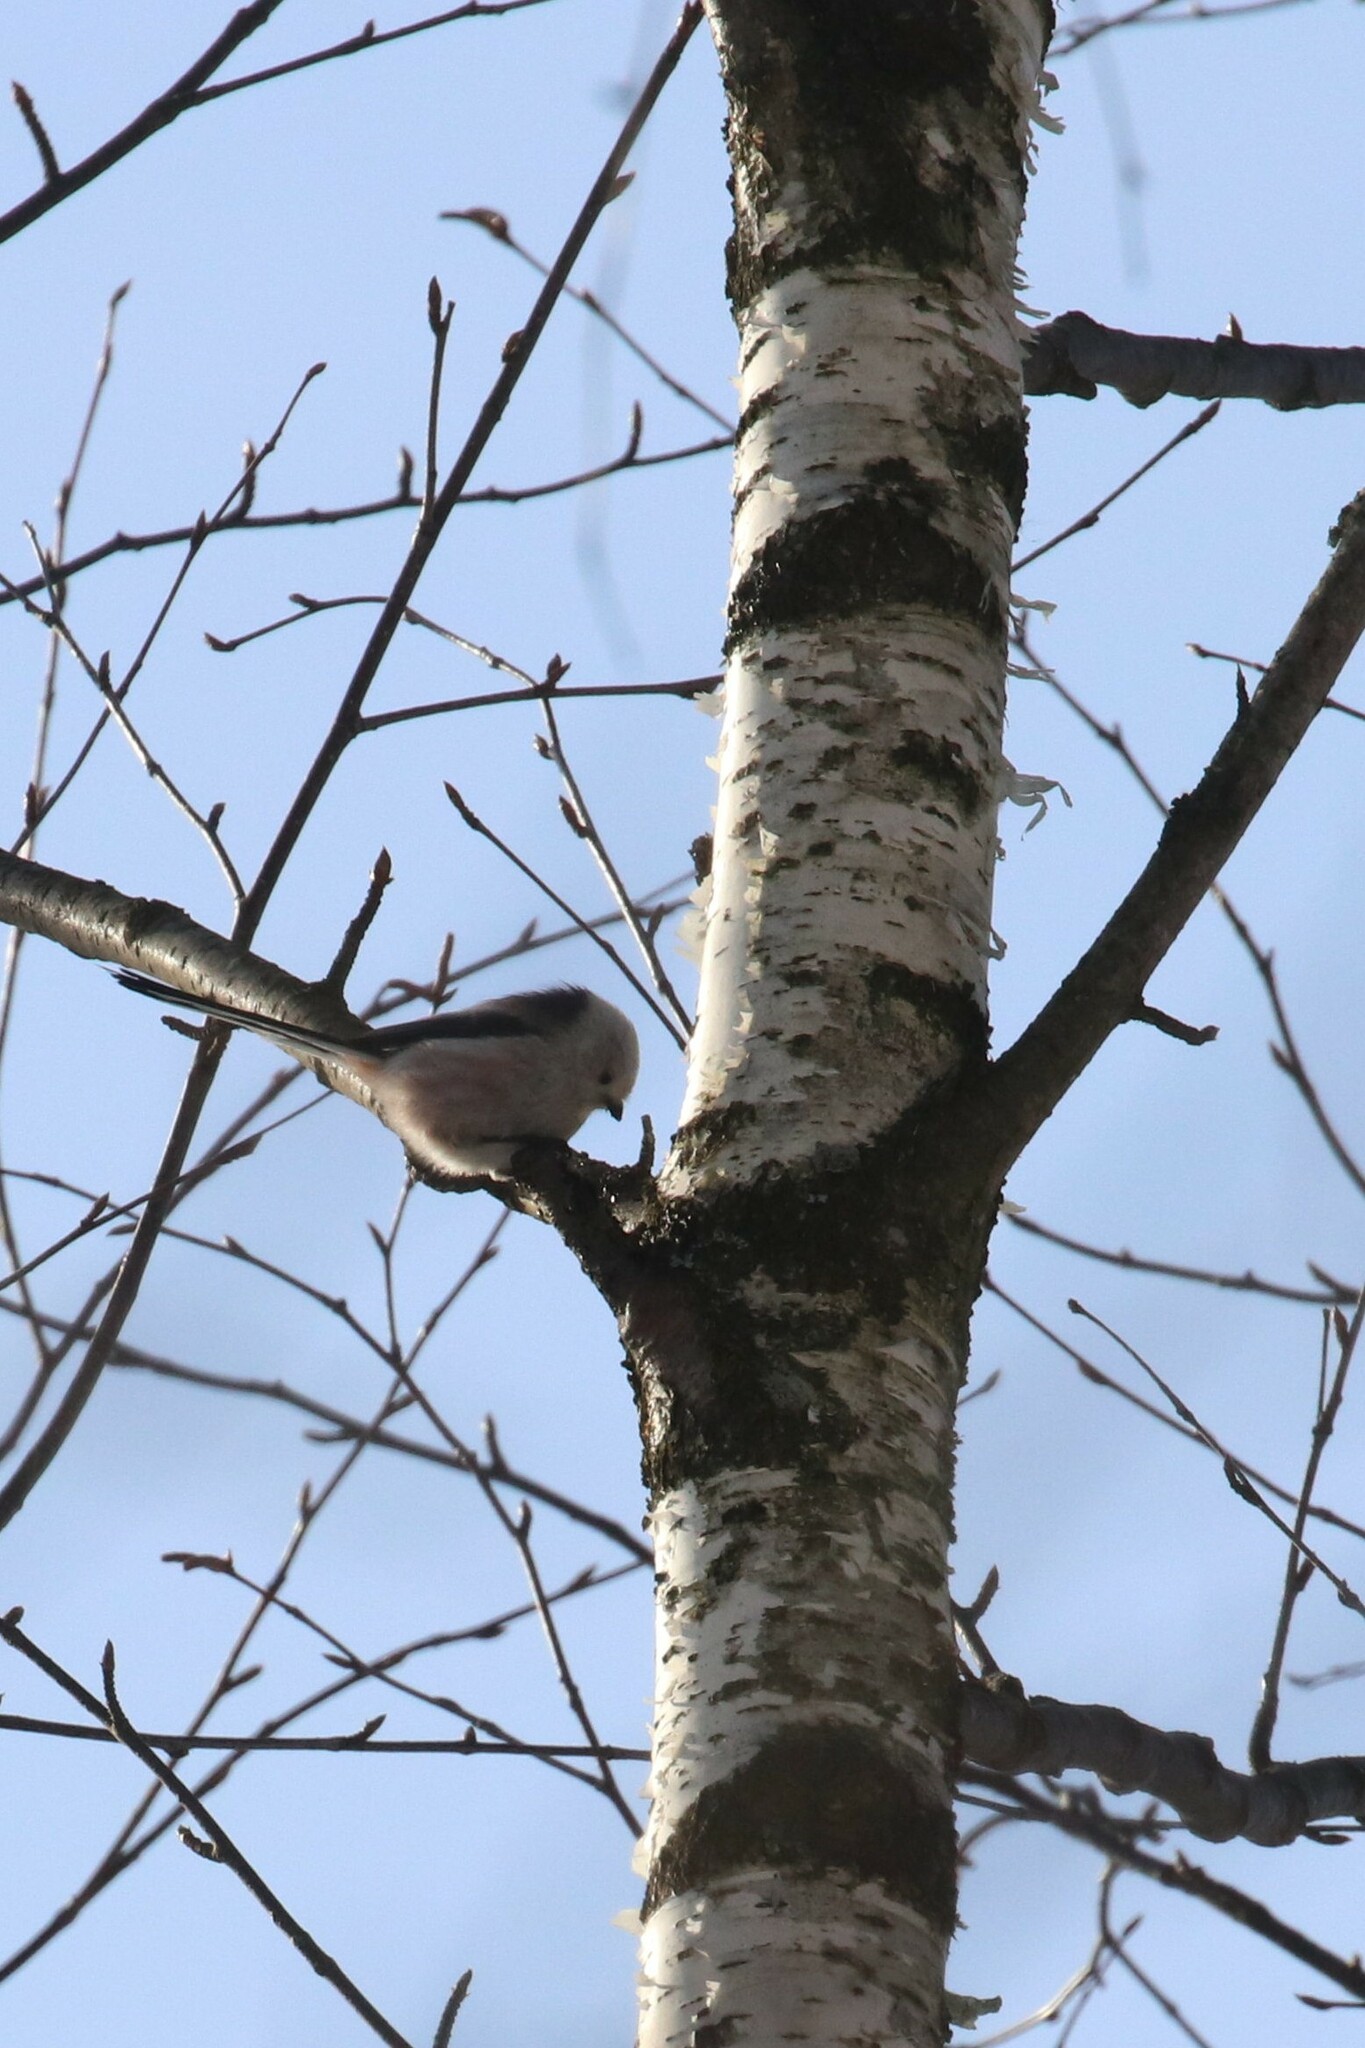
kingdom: Animalia
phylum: Chordata
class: Aves
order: Passeriformes
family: Aegithalidae
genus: Aegithalos
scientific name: Aegithalos caudatus
